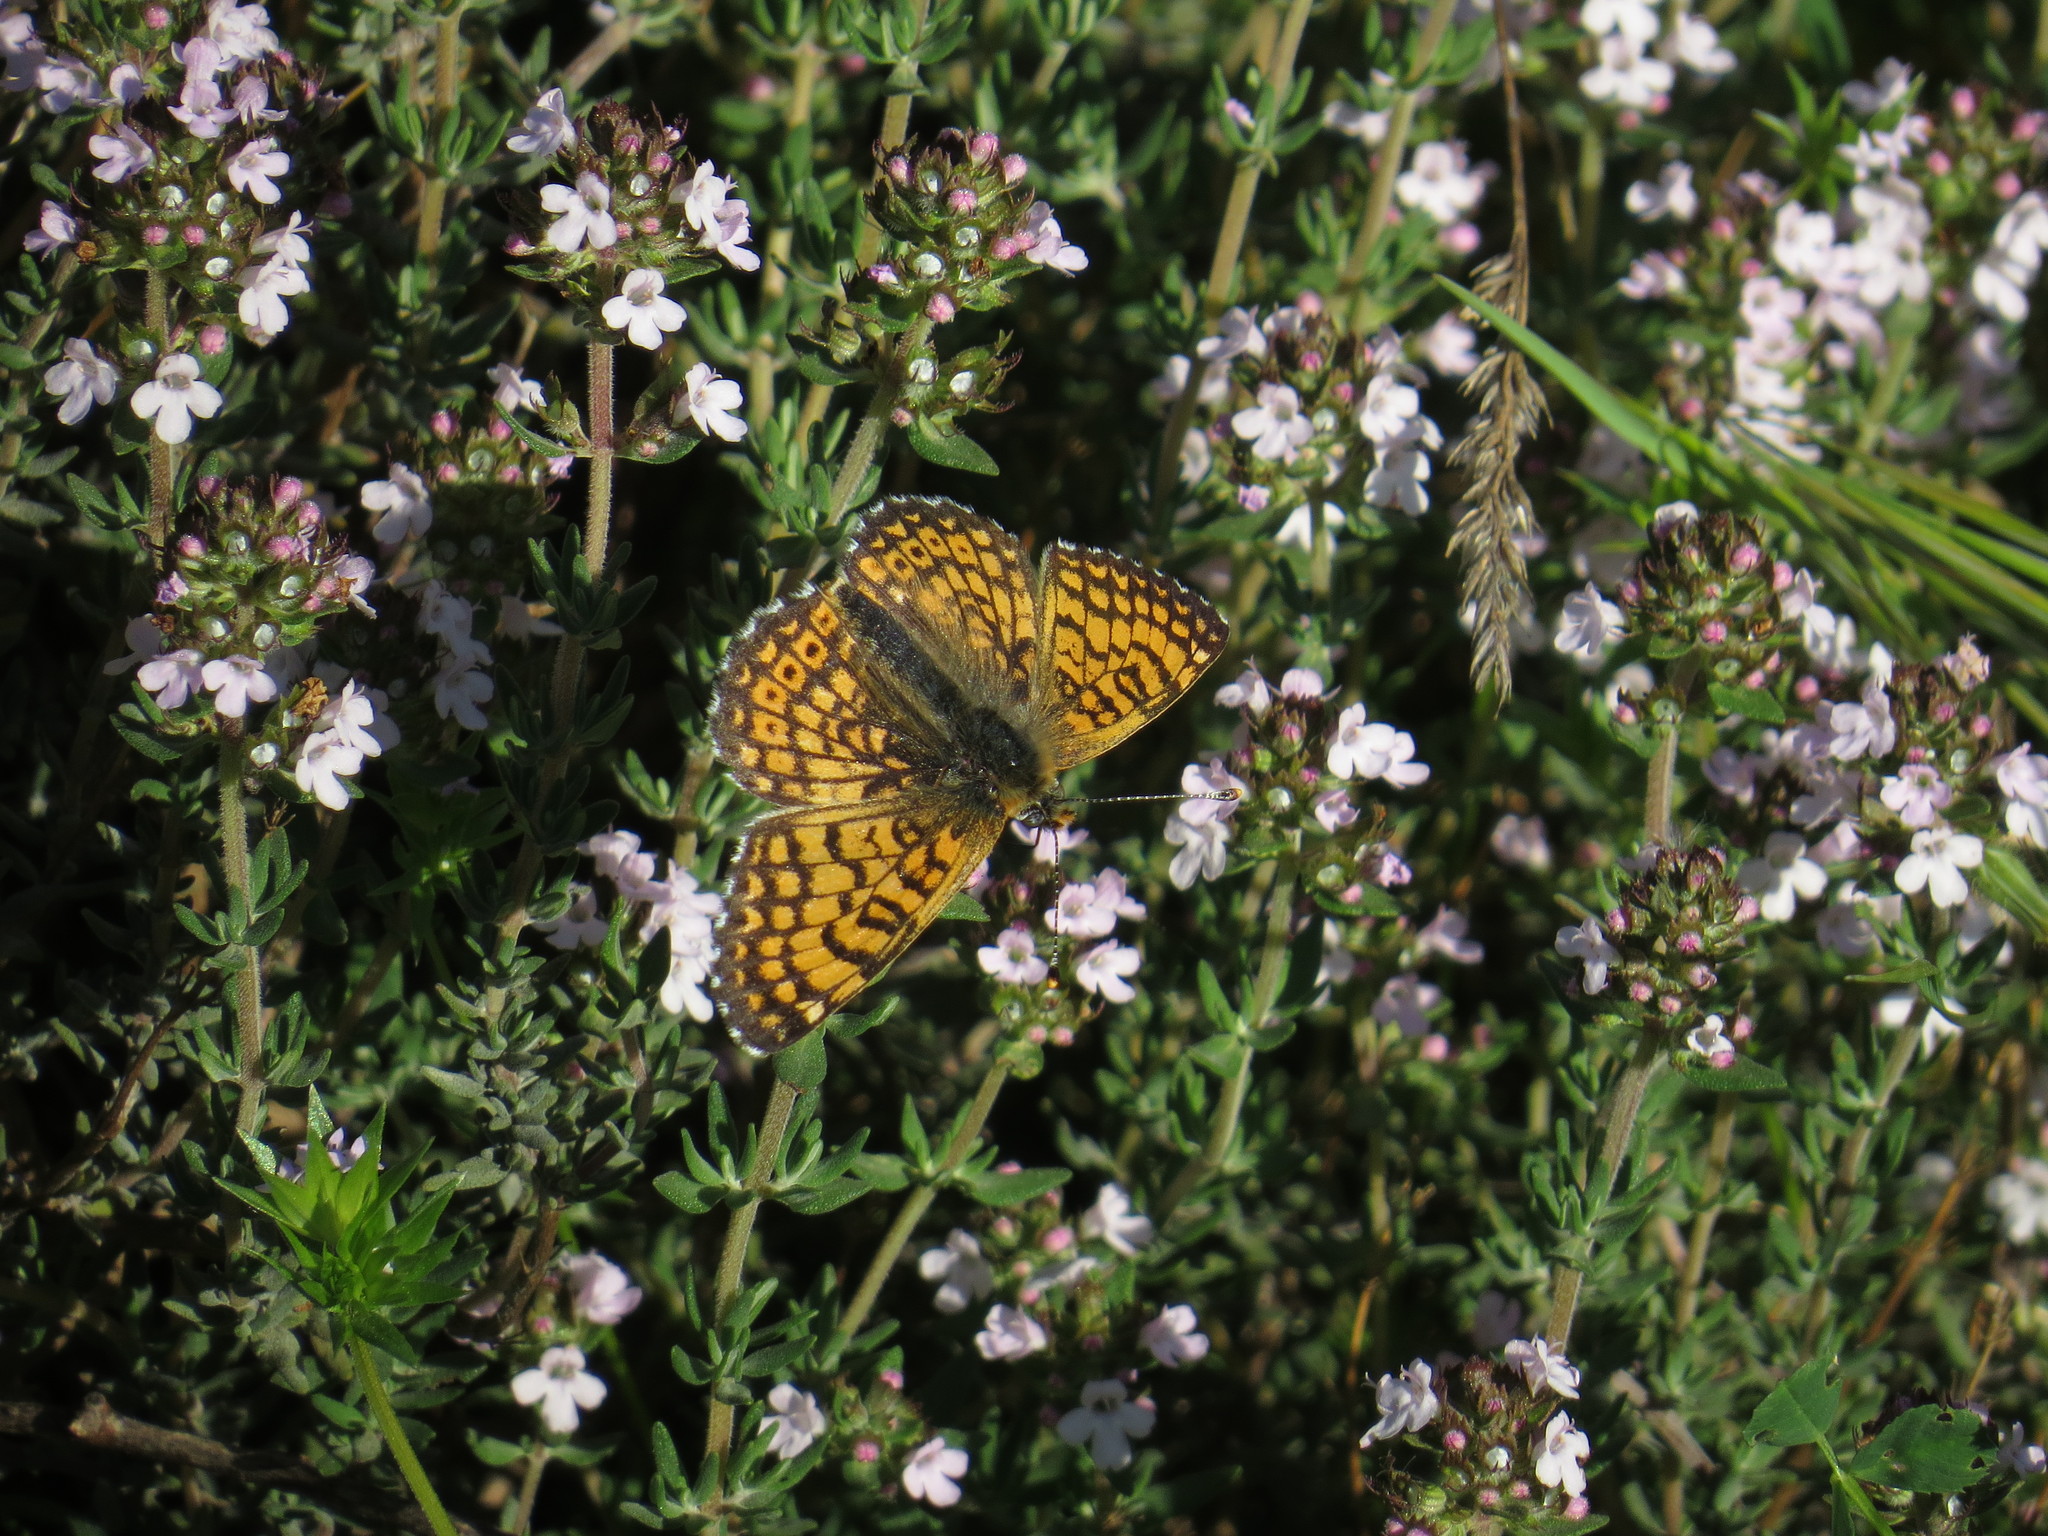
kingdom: Animalia
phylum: Arthropoda
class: Insecta
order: Lepidoptera
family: Nymphalidae
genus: Melitaea
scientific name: Melitaea cinxia
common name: Glanville fritillary
